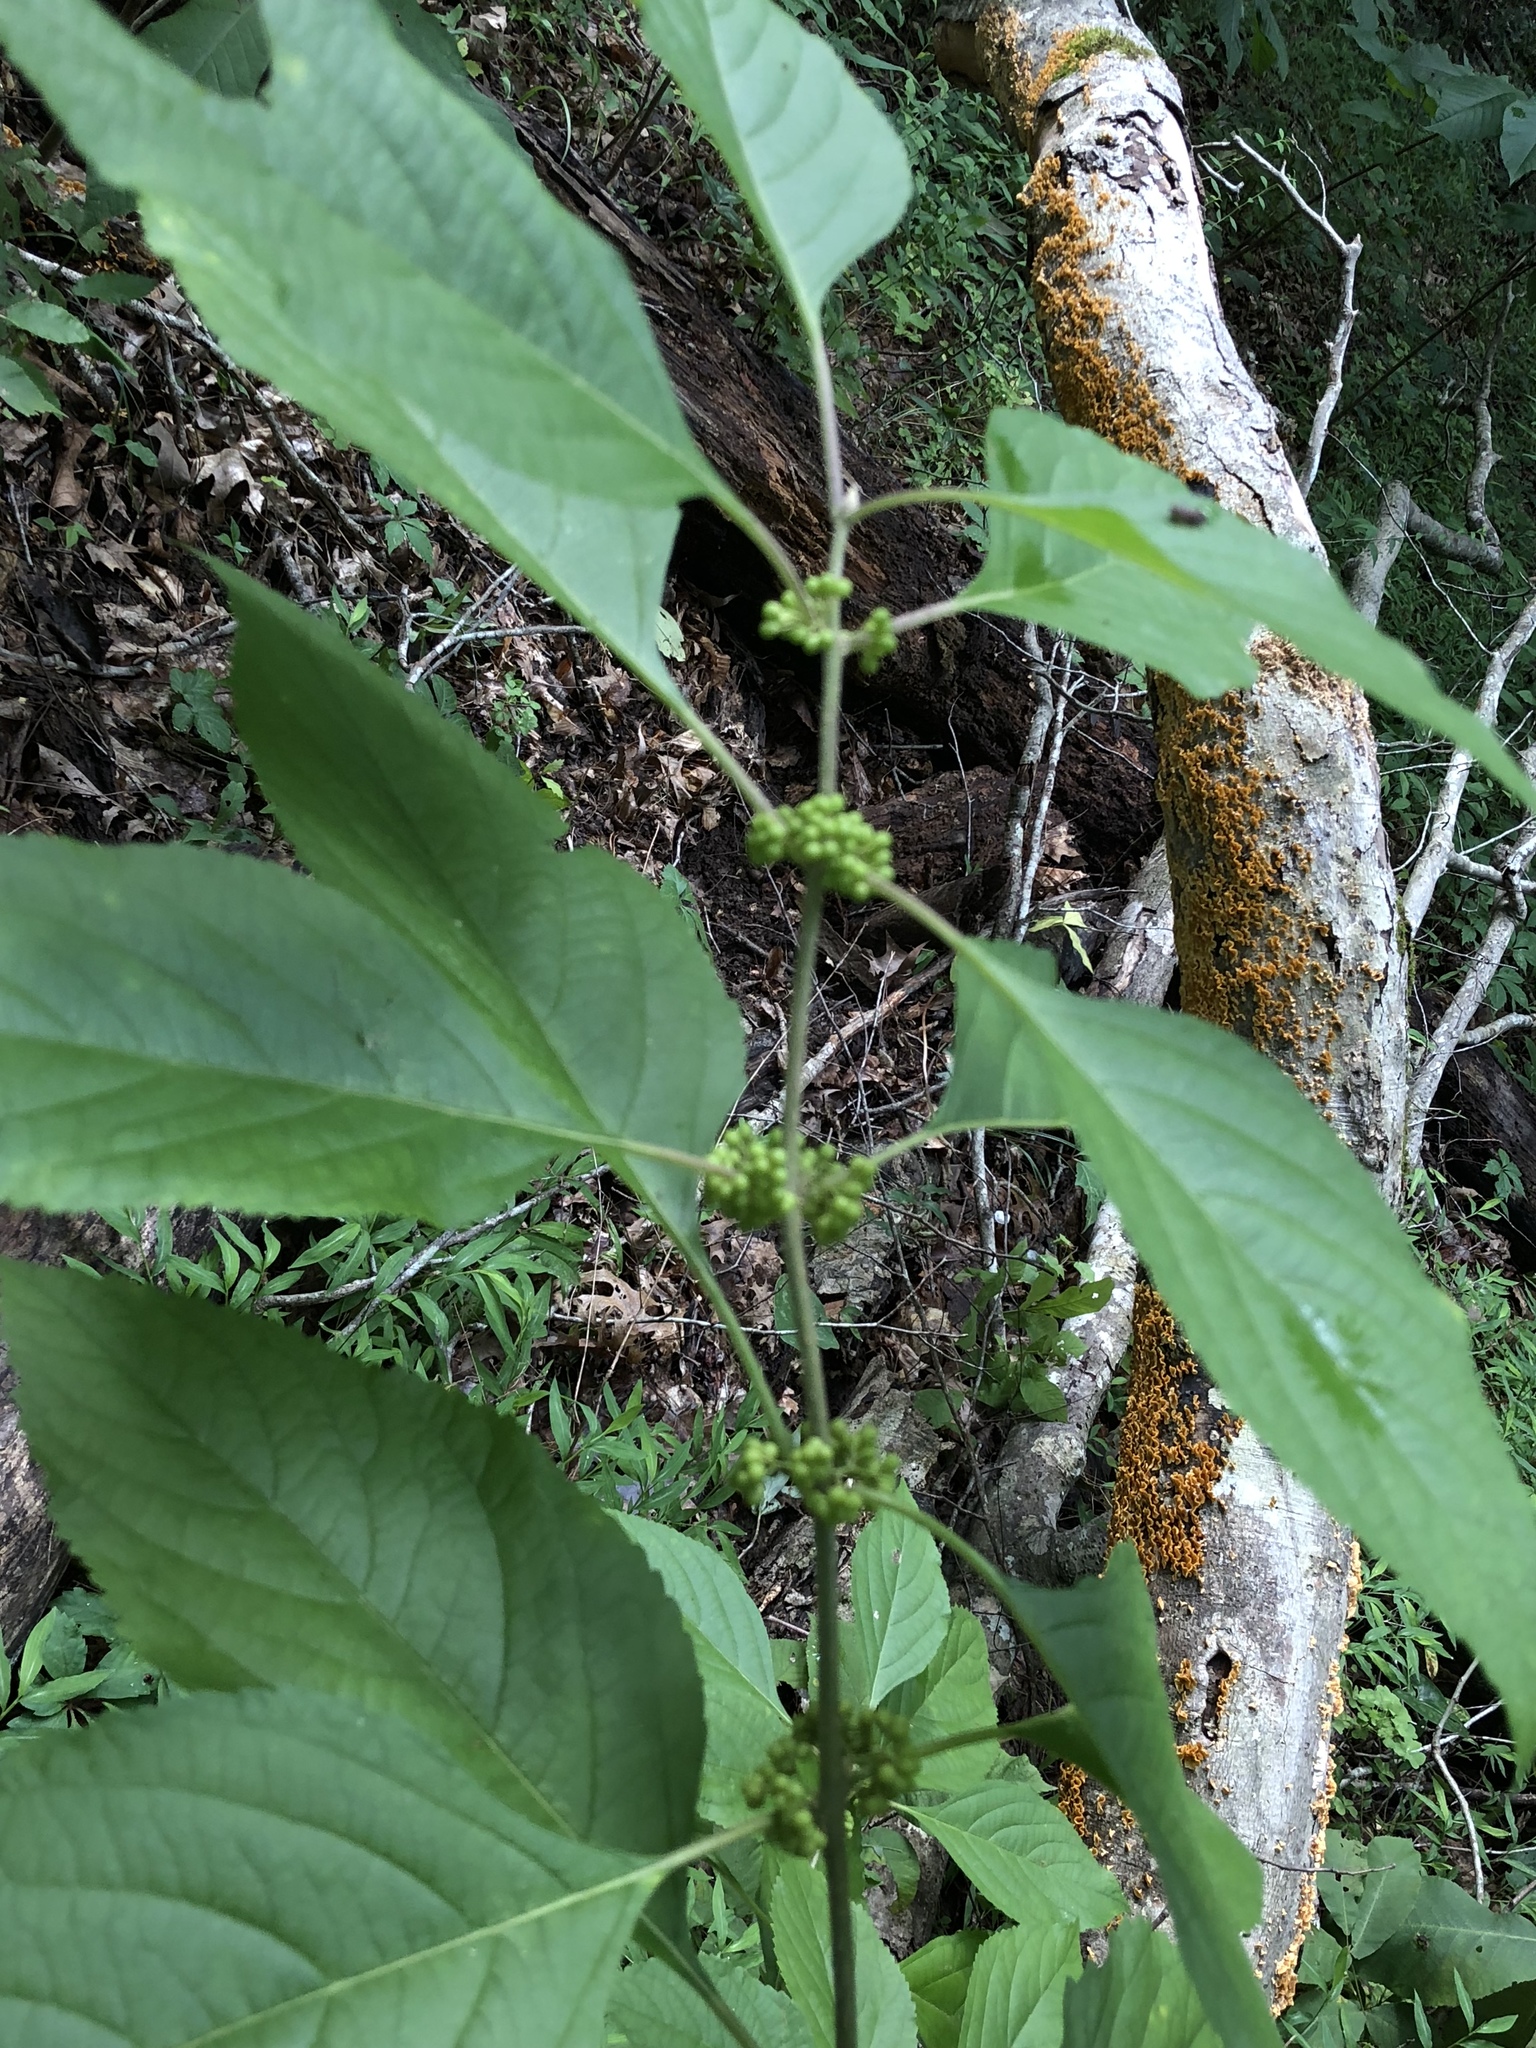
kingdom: Plantae
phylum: Tracheophyta
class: Magnoliopsida
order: Lamiales
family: Lamiaceae
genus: Callicarpa
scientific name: Callicarpa americana
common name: American beautyberry
